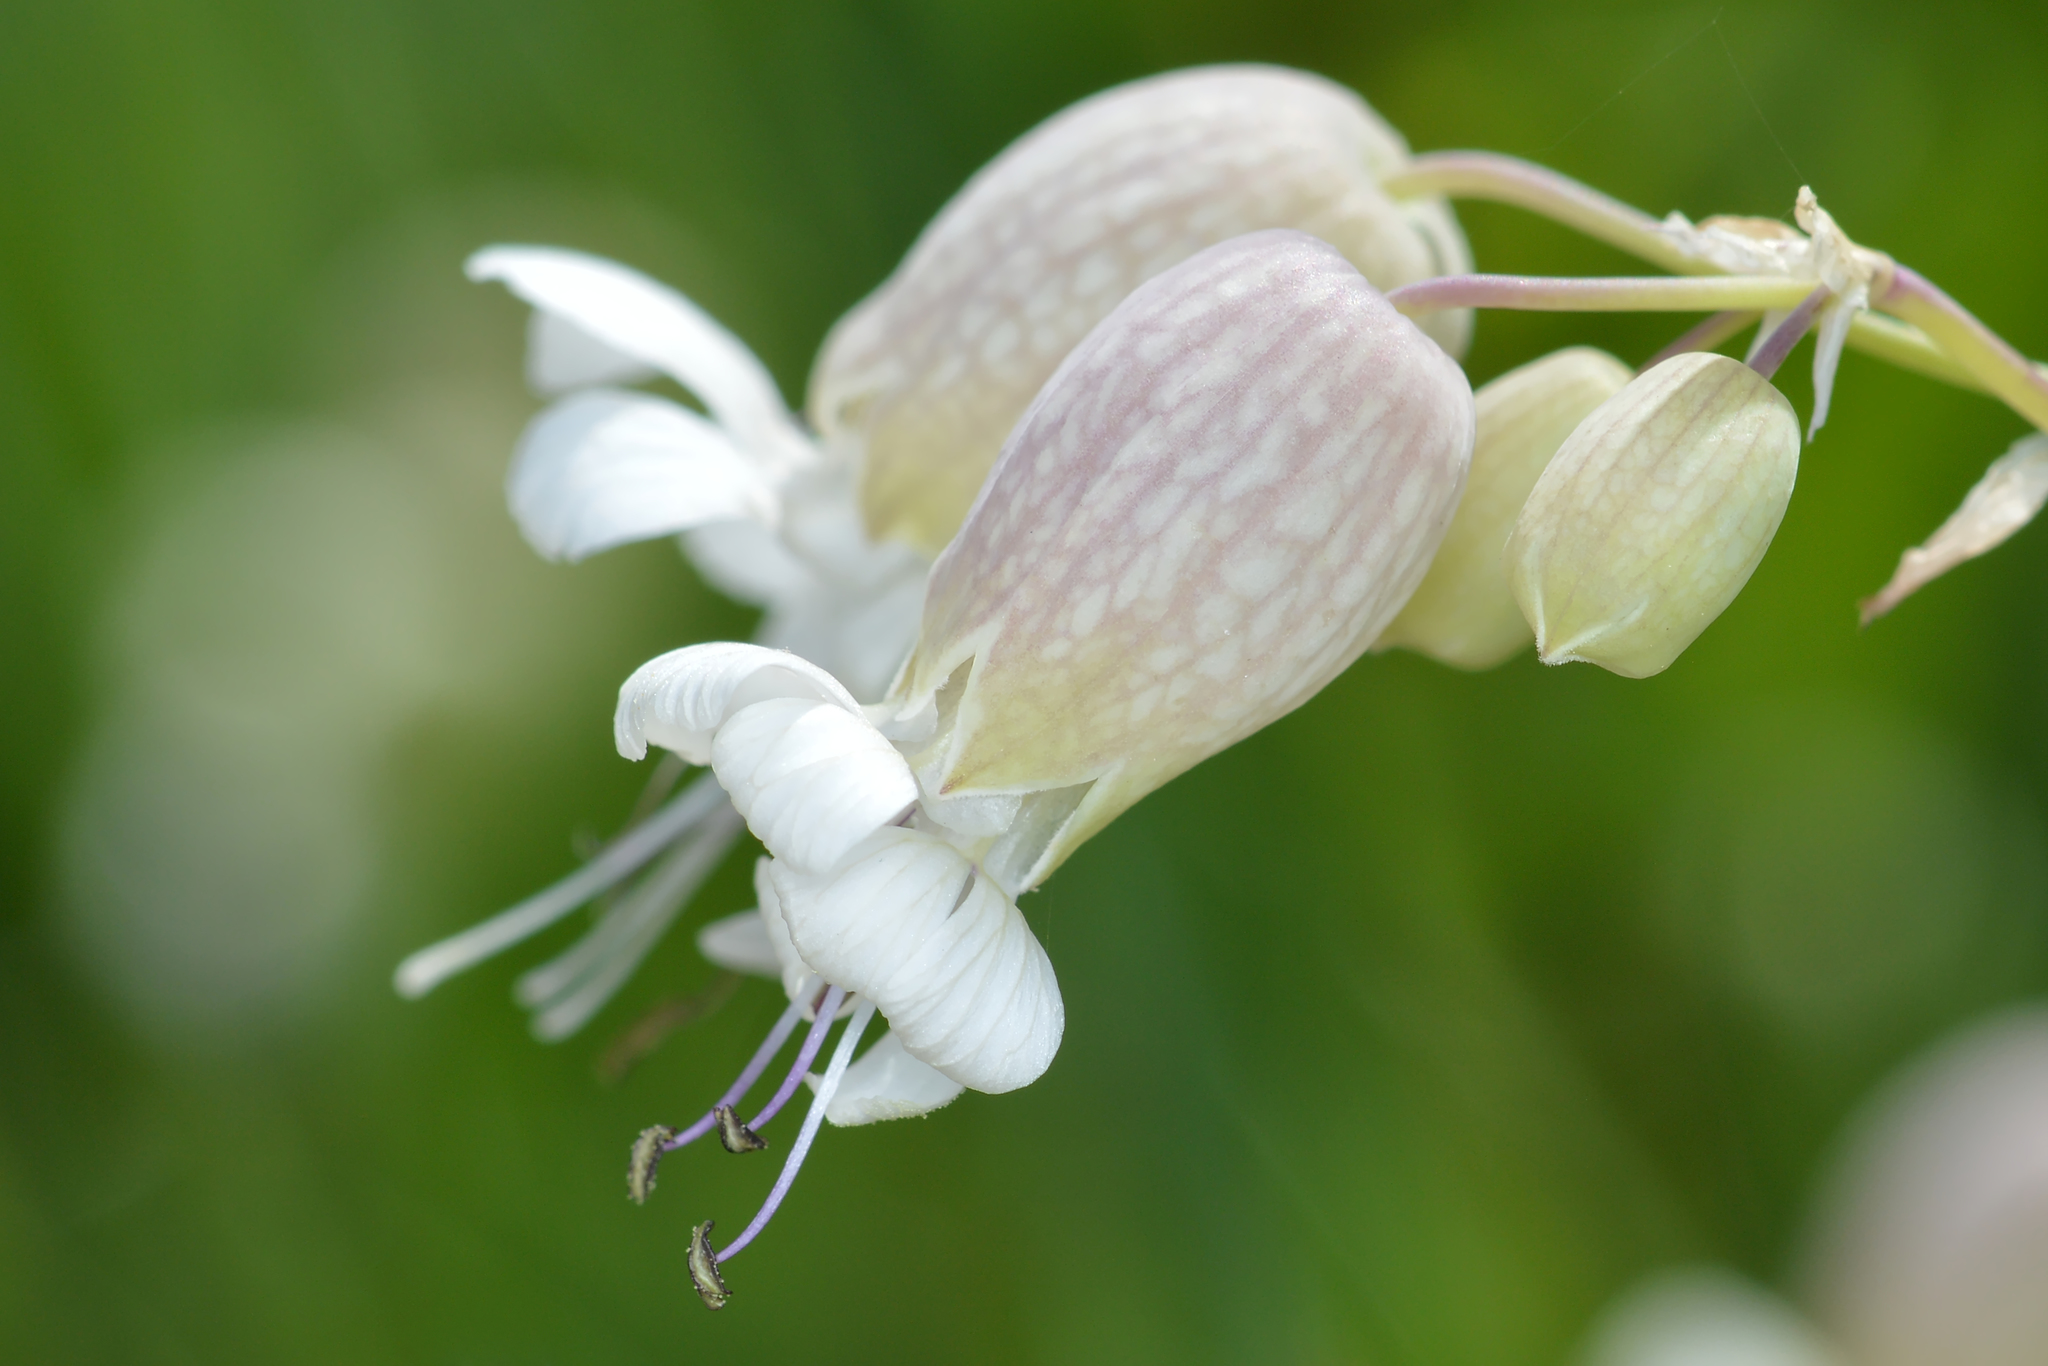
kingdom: Plantae
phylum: Tracheophyta
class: Magnoliopsida
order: Caryophyllales
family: Caryophyllaceae
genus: Silene
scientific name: Silene vulgaris
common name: Bladder campion
